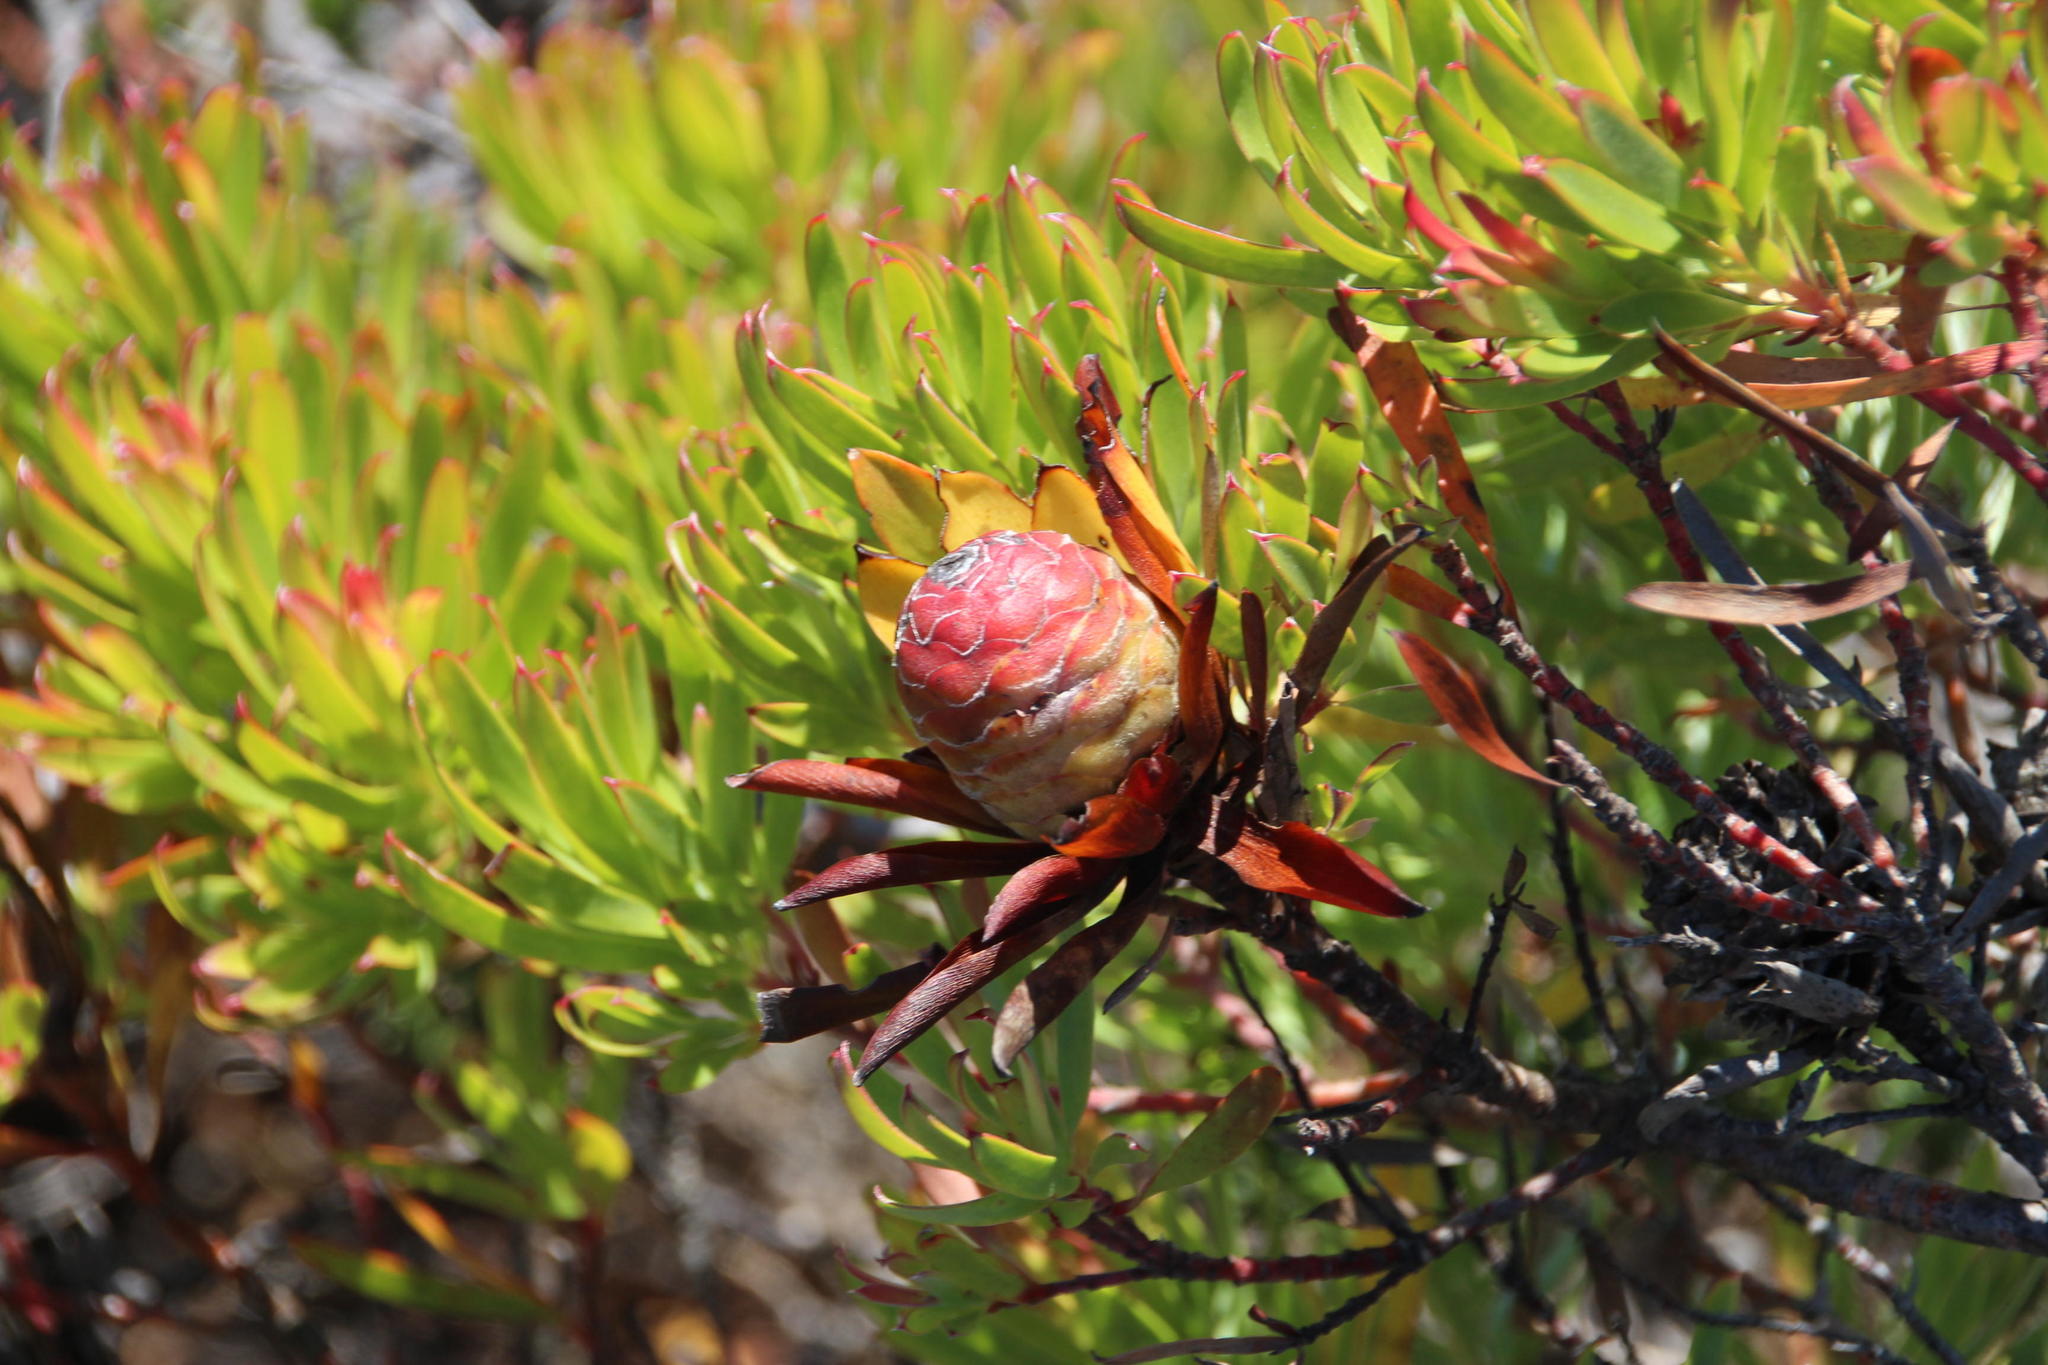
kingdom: Plantae
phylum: Tracheophyta
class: Magnoliopsida
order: Proteales
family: Proteaceae
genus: Leucadendron
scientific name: Leucadendron xanthoconus
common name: Sickle-leaf conebush
